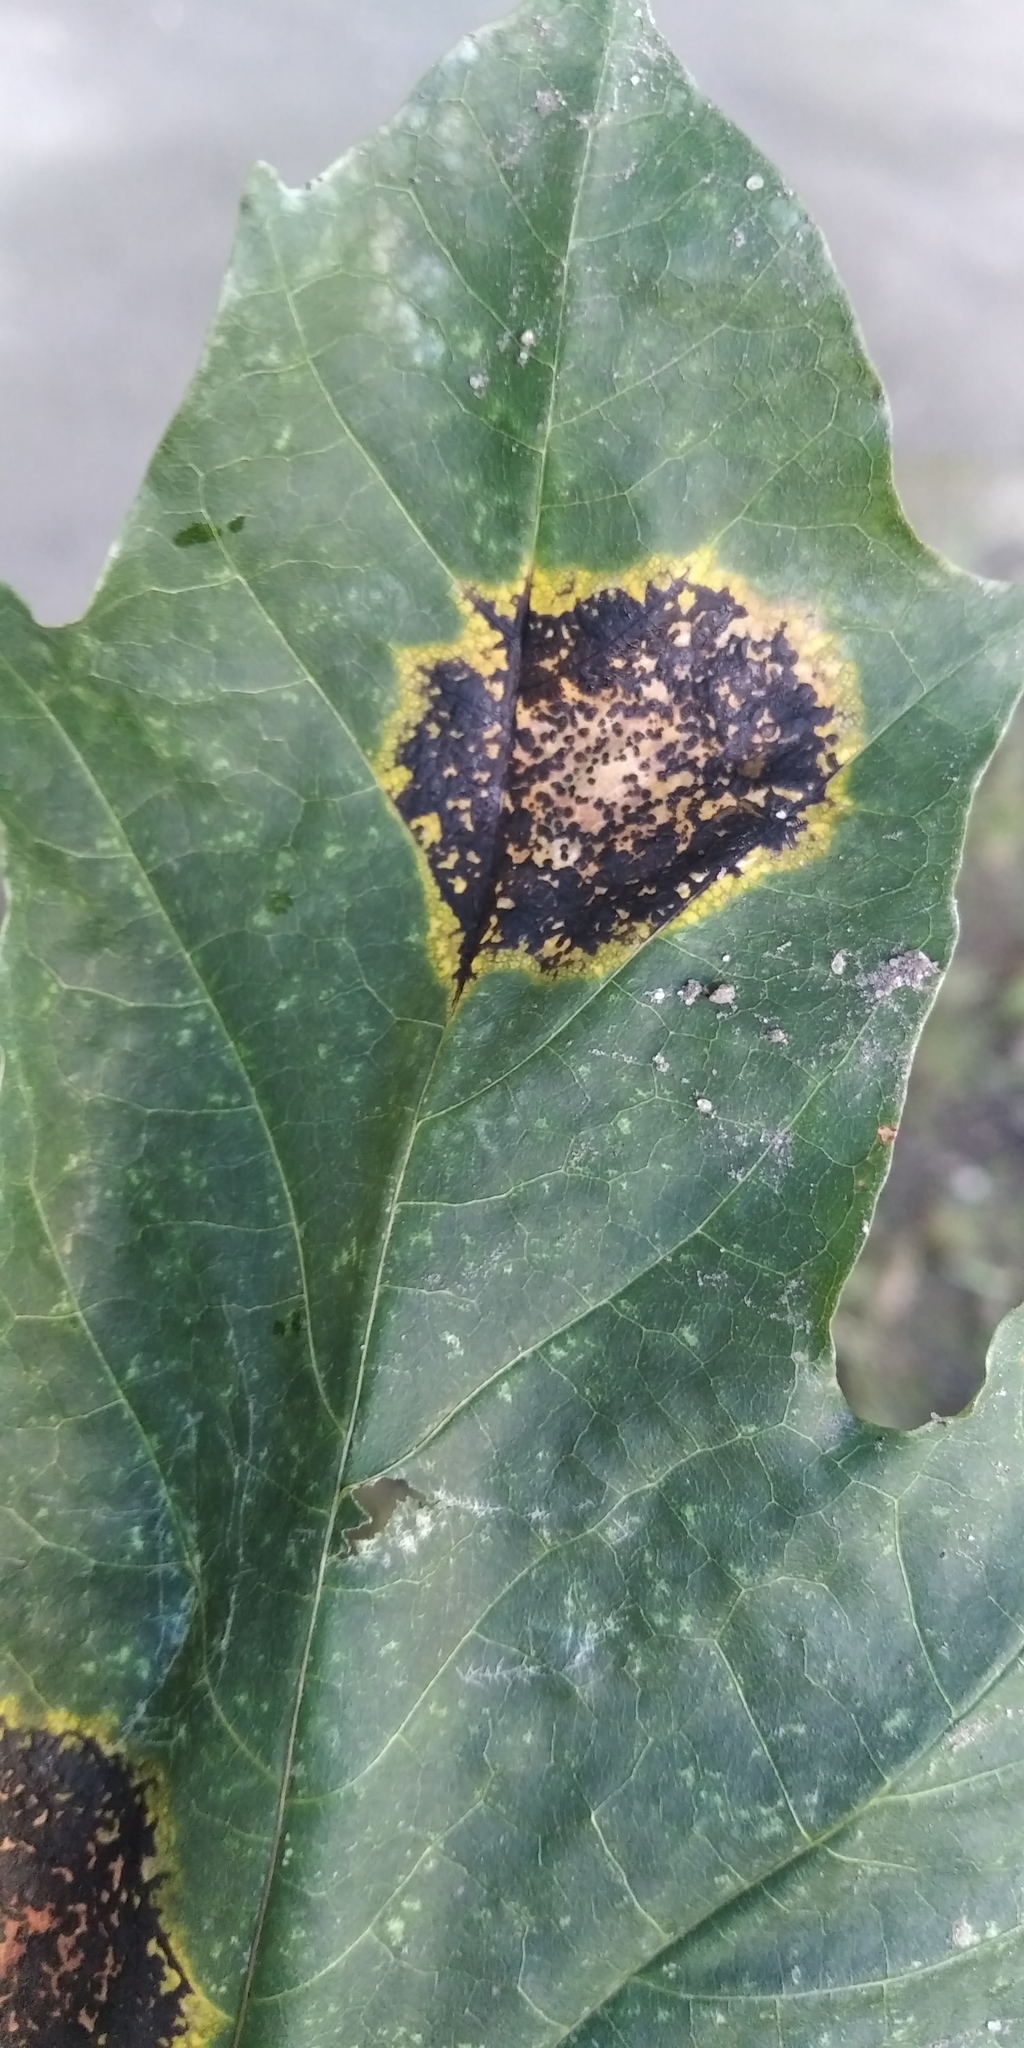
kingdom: Fungi
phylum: Ascomycota
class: Leotiomycetes
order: Rhytismatales
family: Rhytismataceae
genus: Rhytisma
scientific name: Rhytisma acerinum
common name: European tar spot
